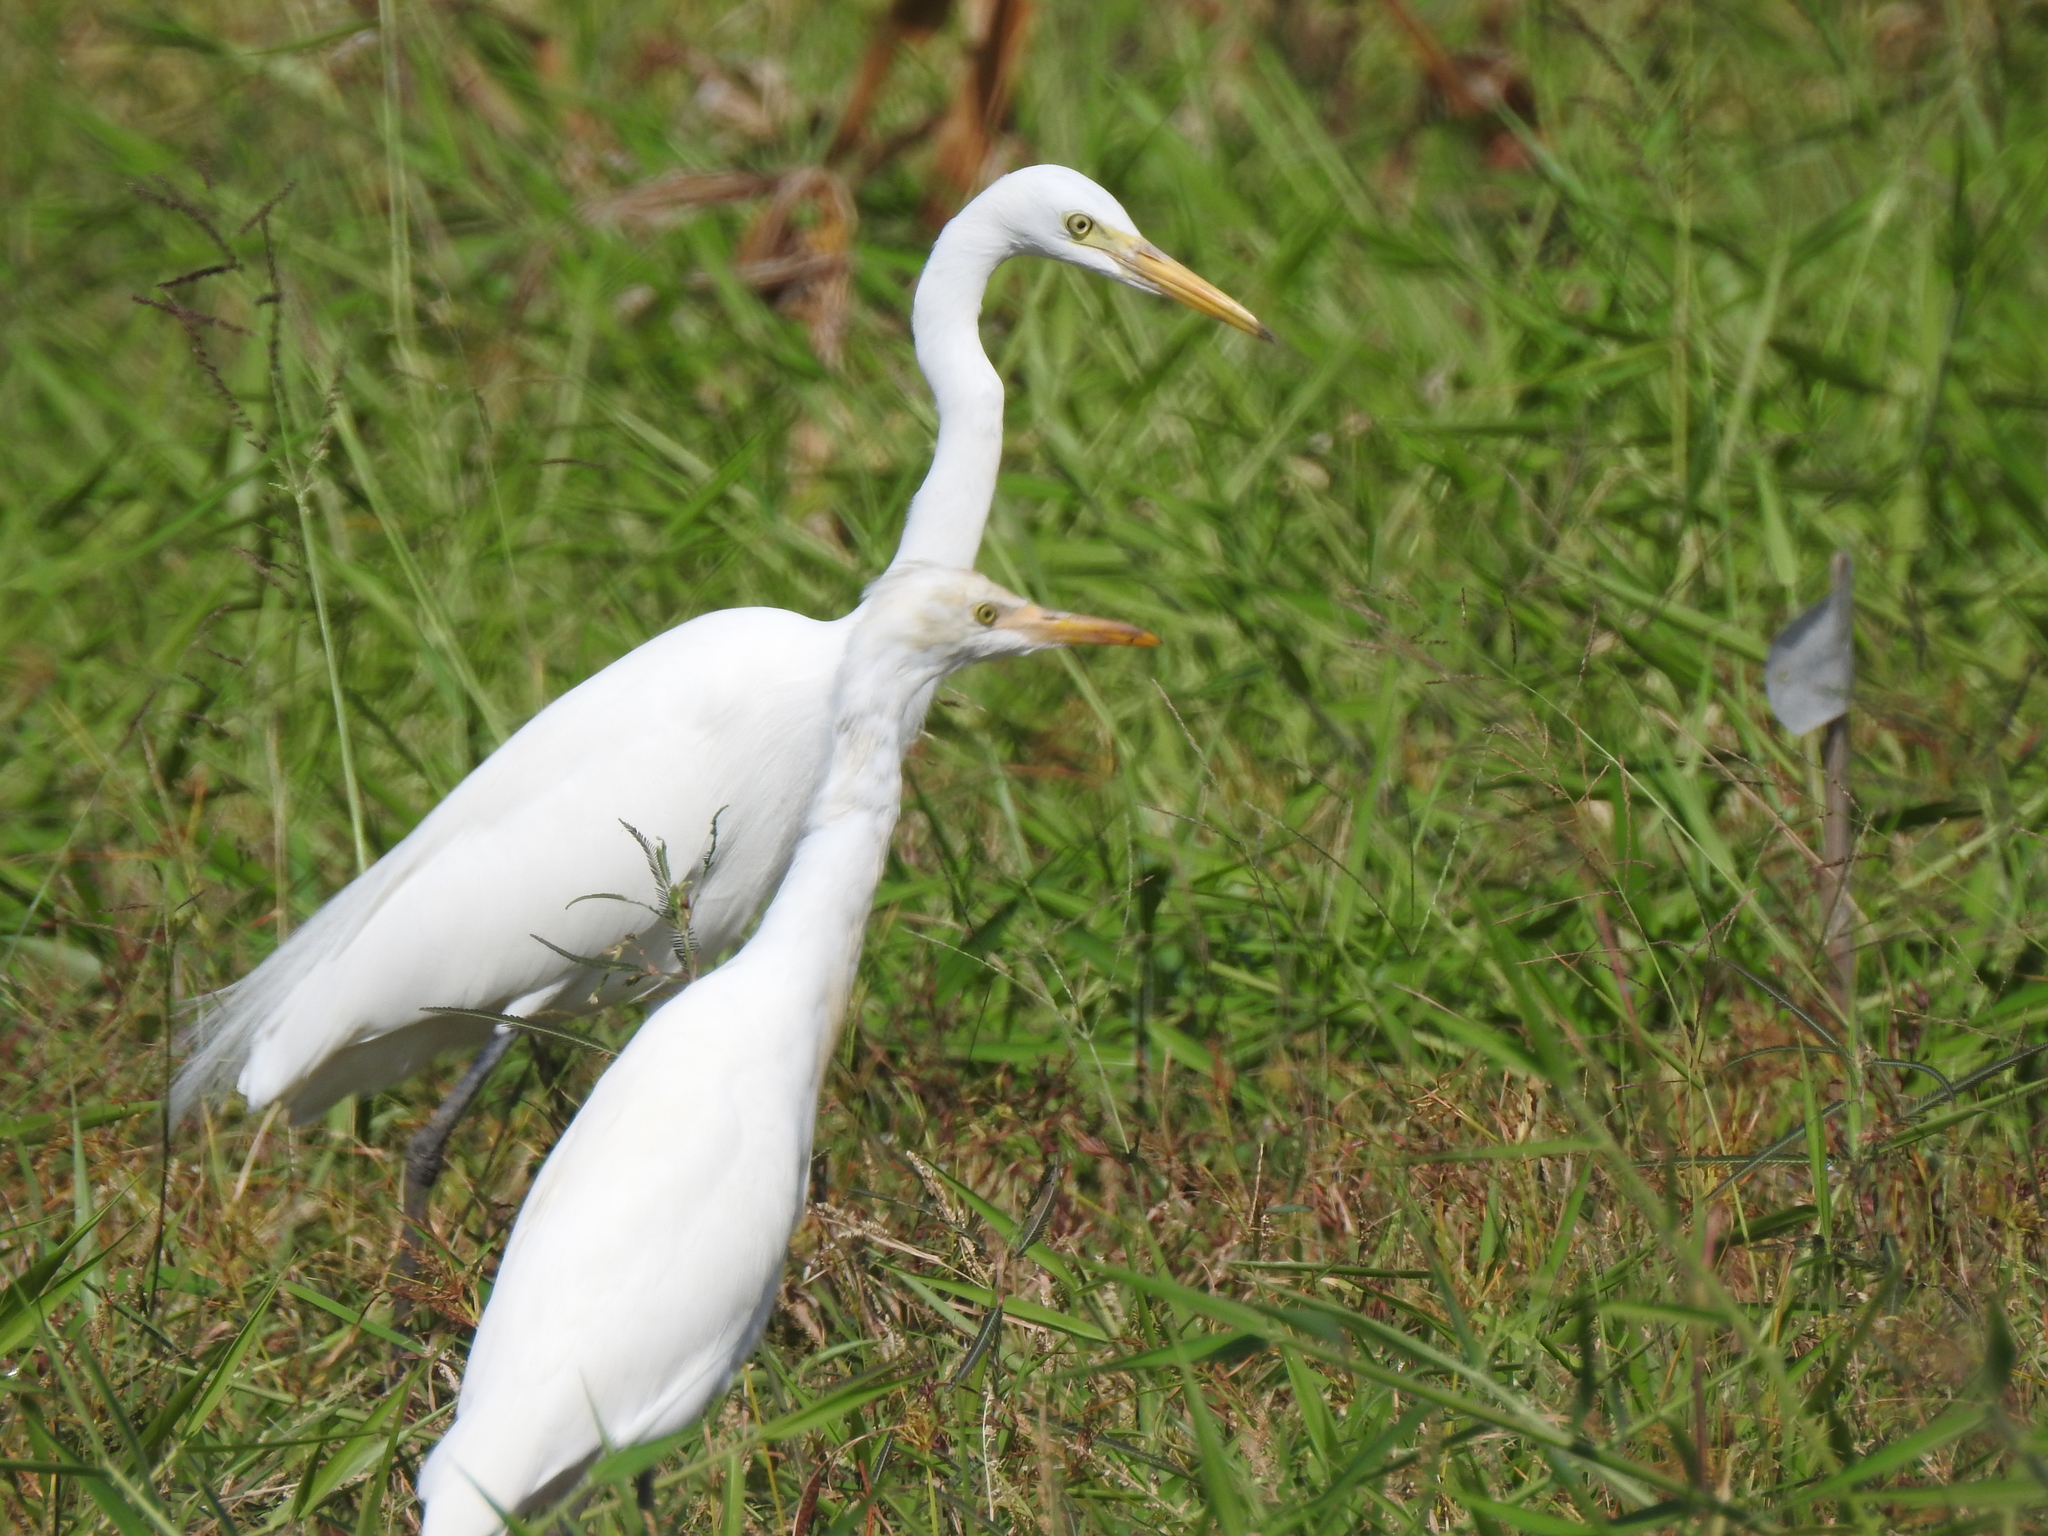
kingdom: Animalia
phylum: Chordata
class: Aves
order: Pelecaniformes
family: Ardeidae
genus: Bubulcus
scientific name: Bubulcus coromandus
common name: Eastern cattle egret
